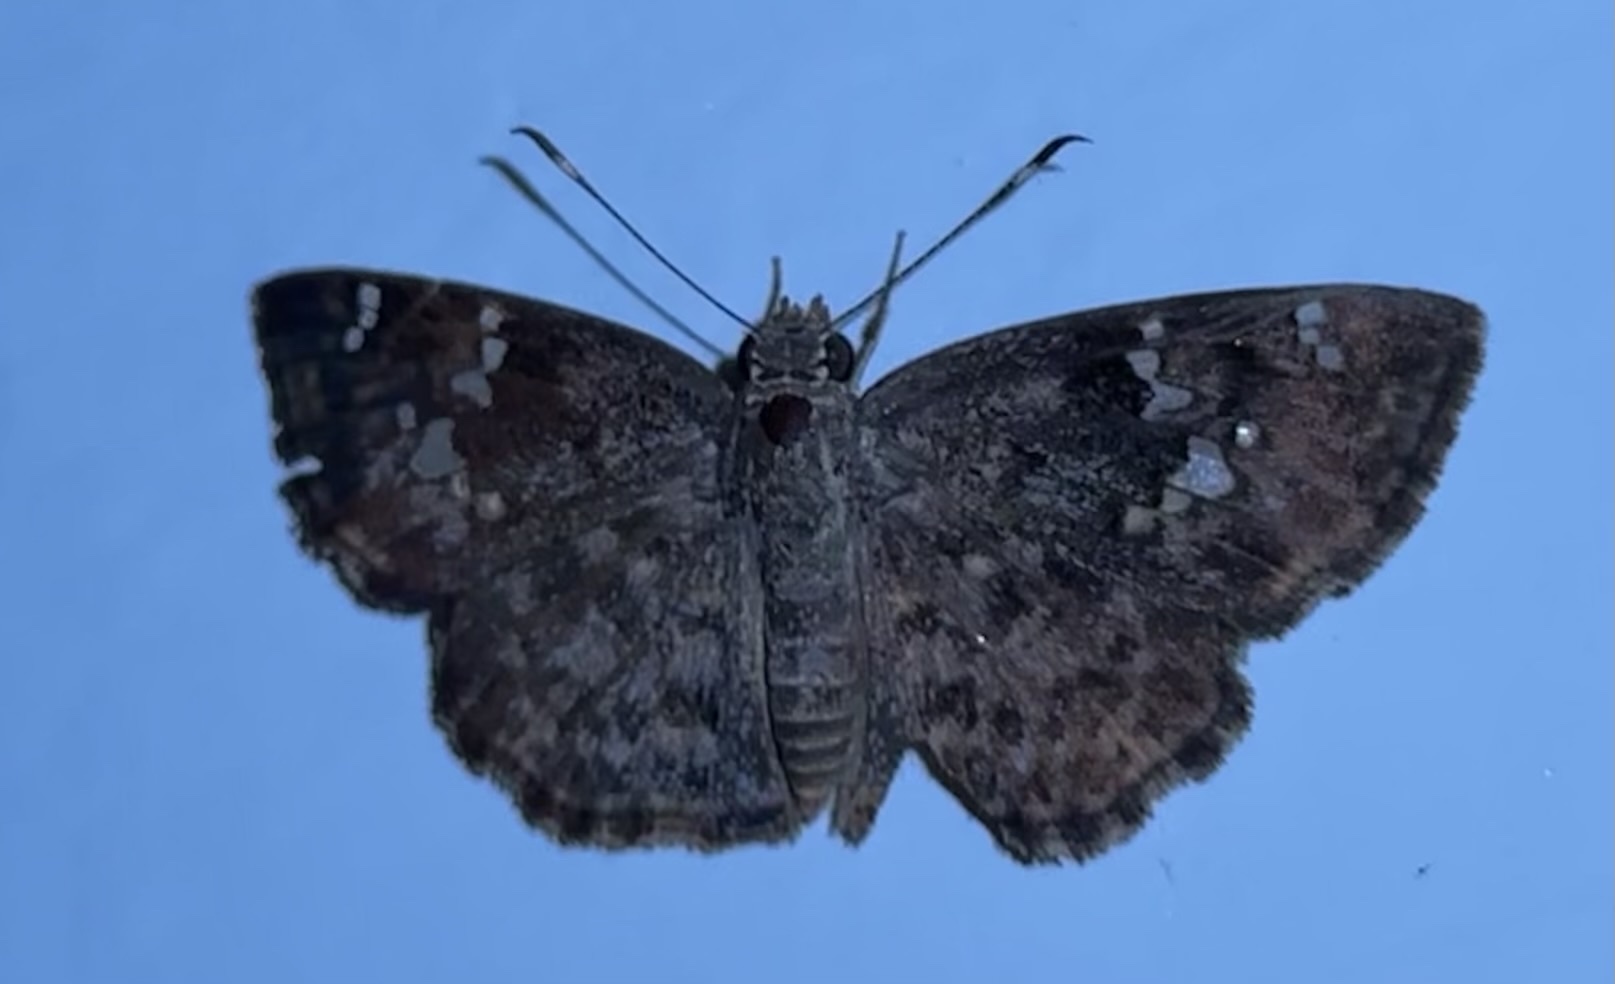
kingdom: Animalia
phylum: Arthropoda
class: Insecta
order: Lepidoptera
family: Hesperiidae
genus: Sarangesa
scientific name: Sarangesa seineri
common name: Dark elfin
